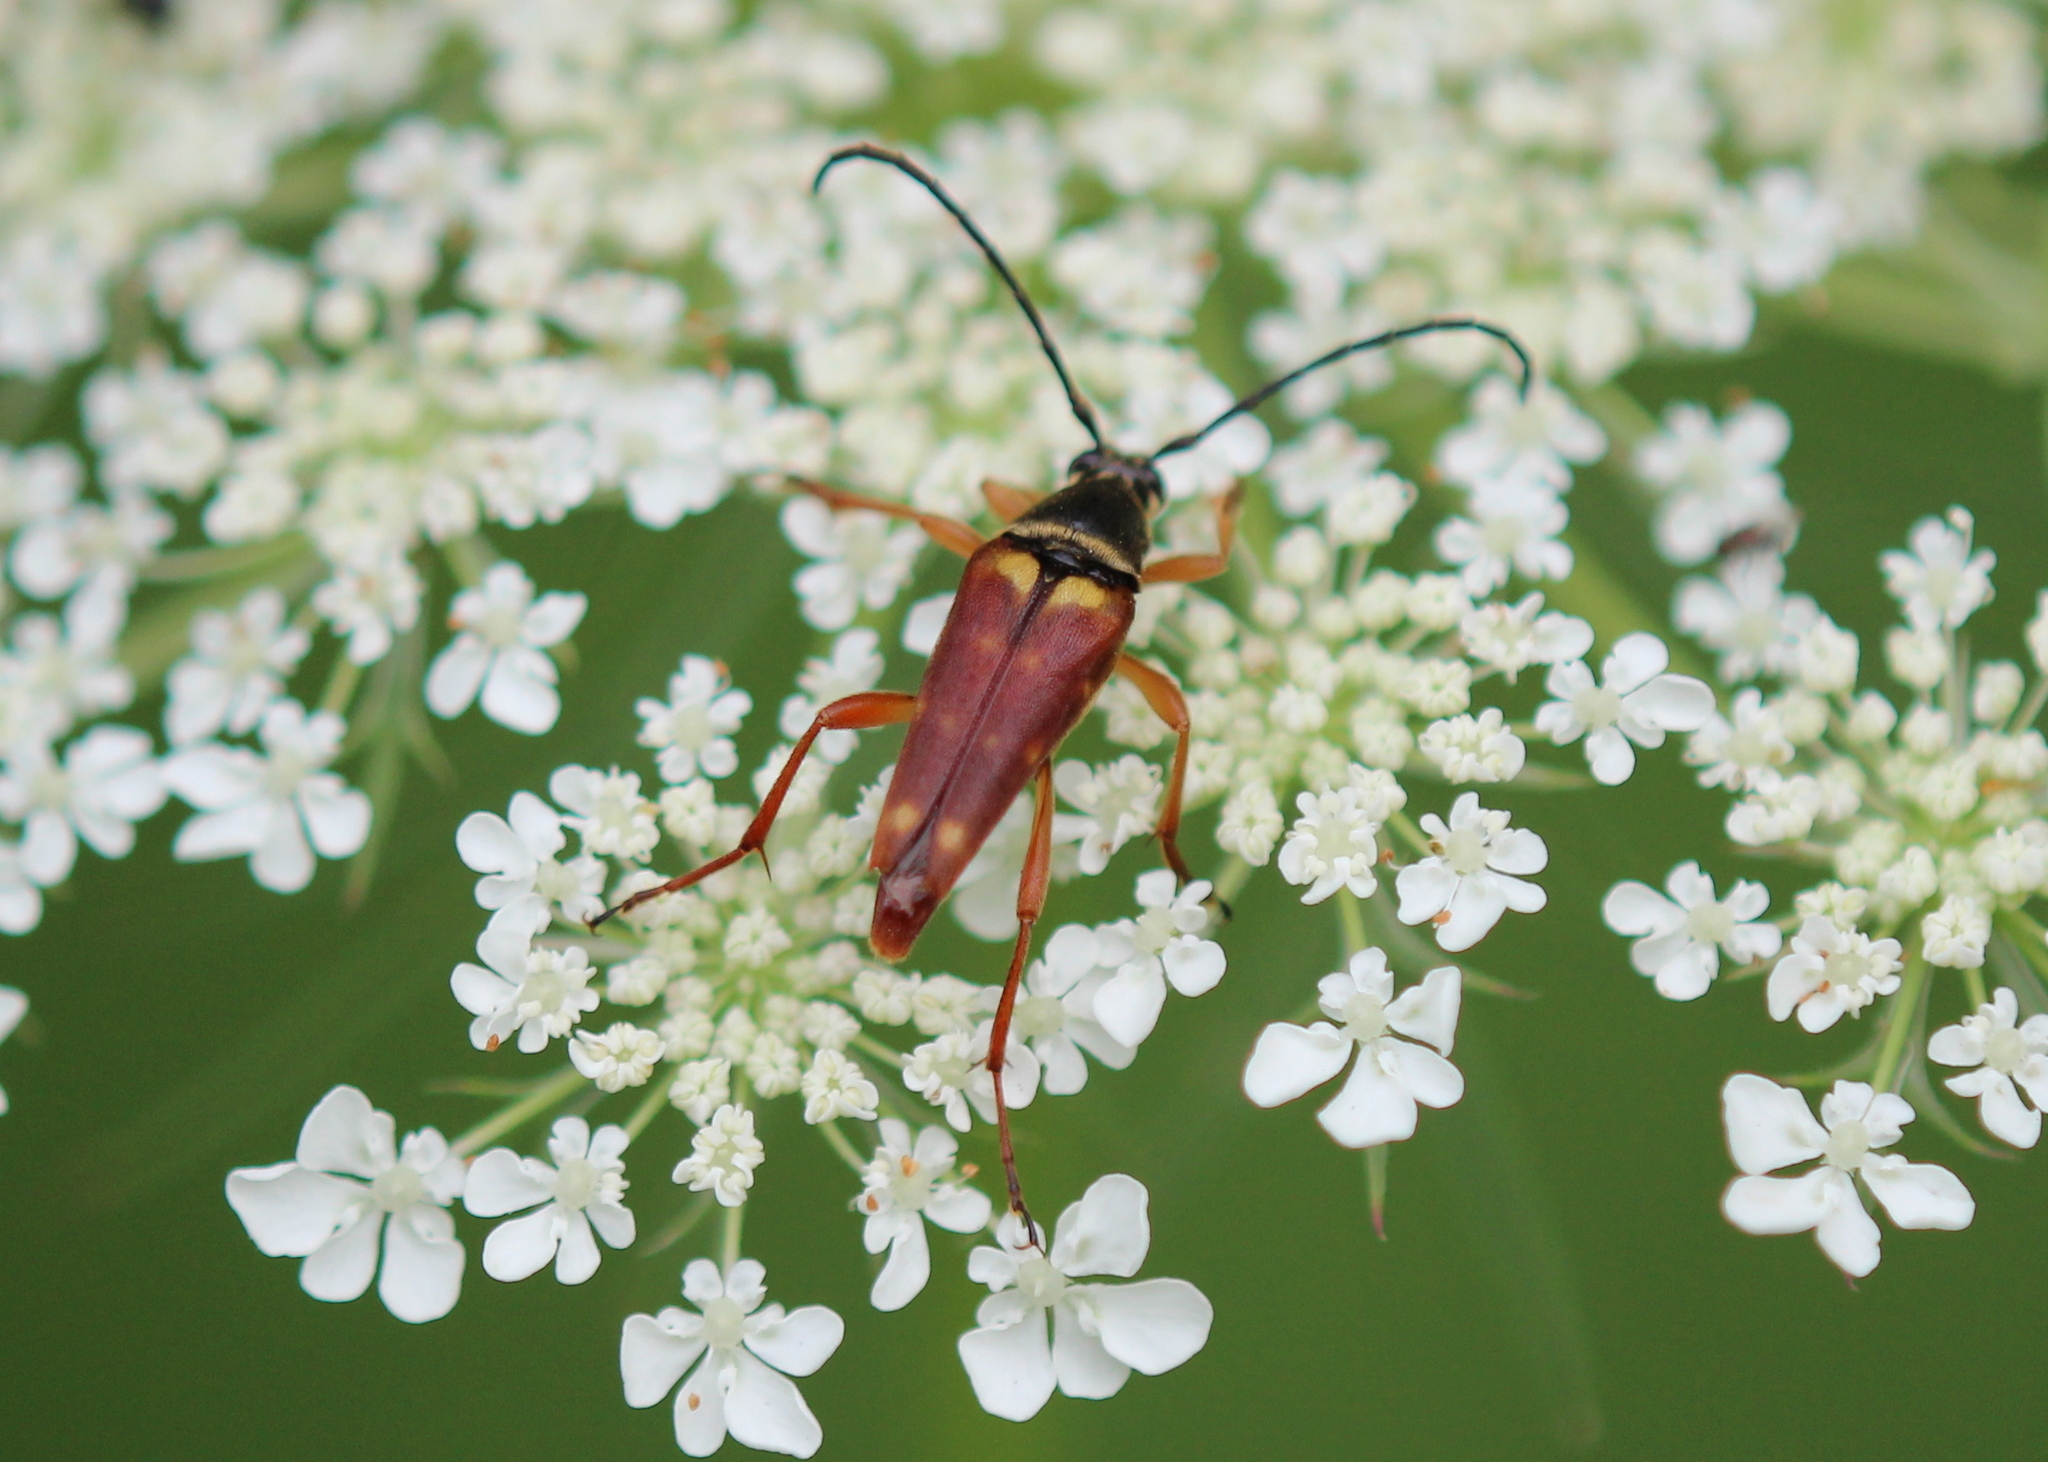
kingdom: Animalia
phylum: Arthropoda
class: Insecta
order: Coleoptera
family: Cerambycidae
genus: Typocerus
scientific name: Typocerus velutinus
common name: Banded longhorn beetle
